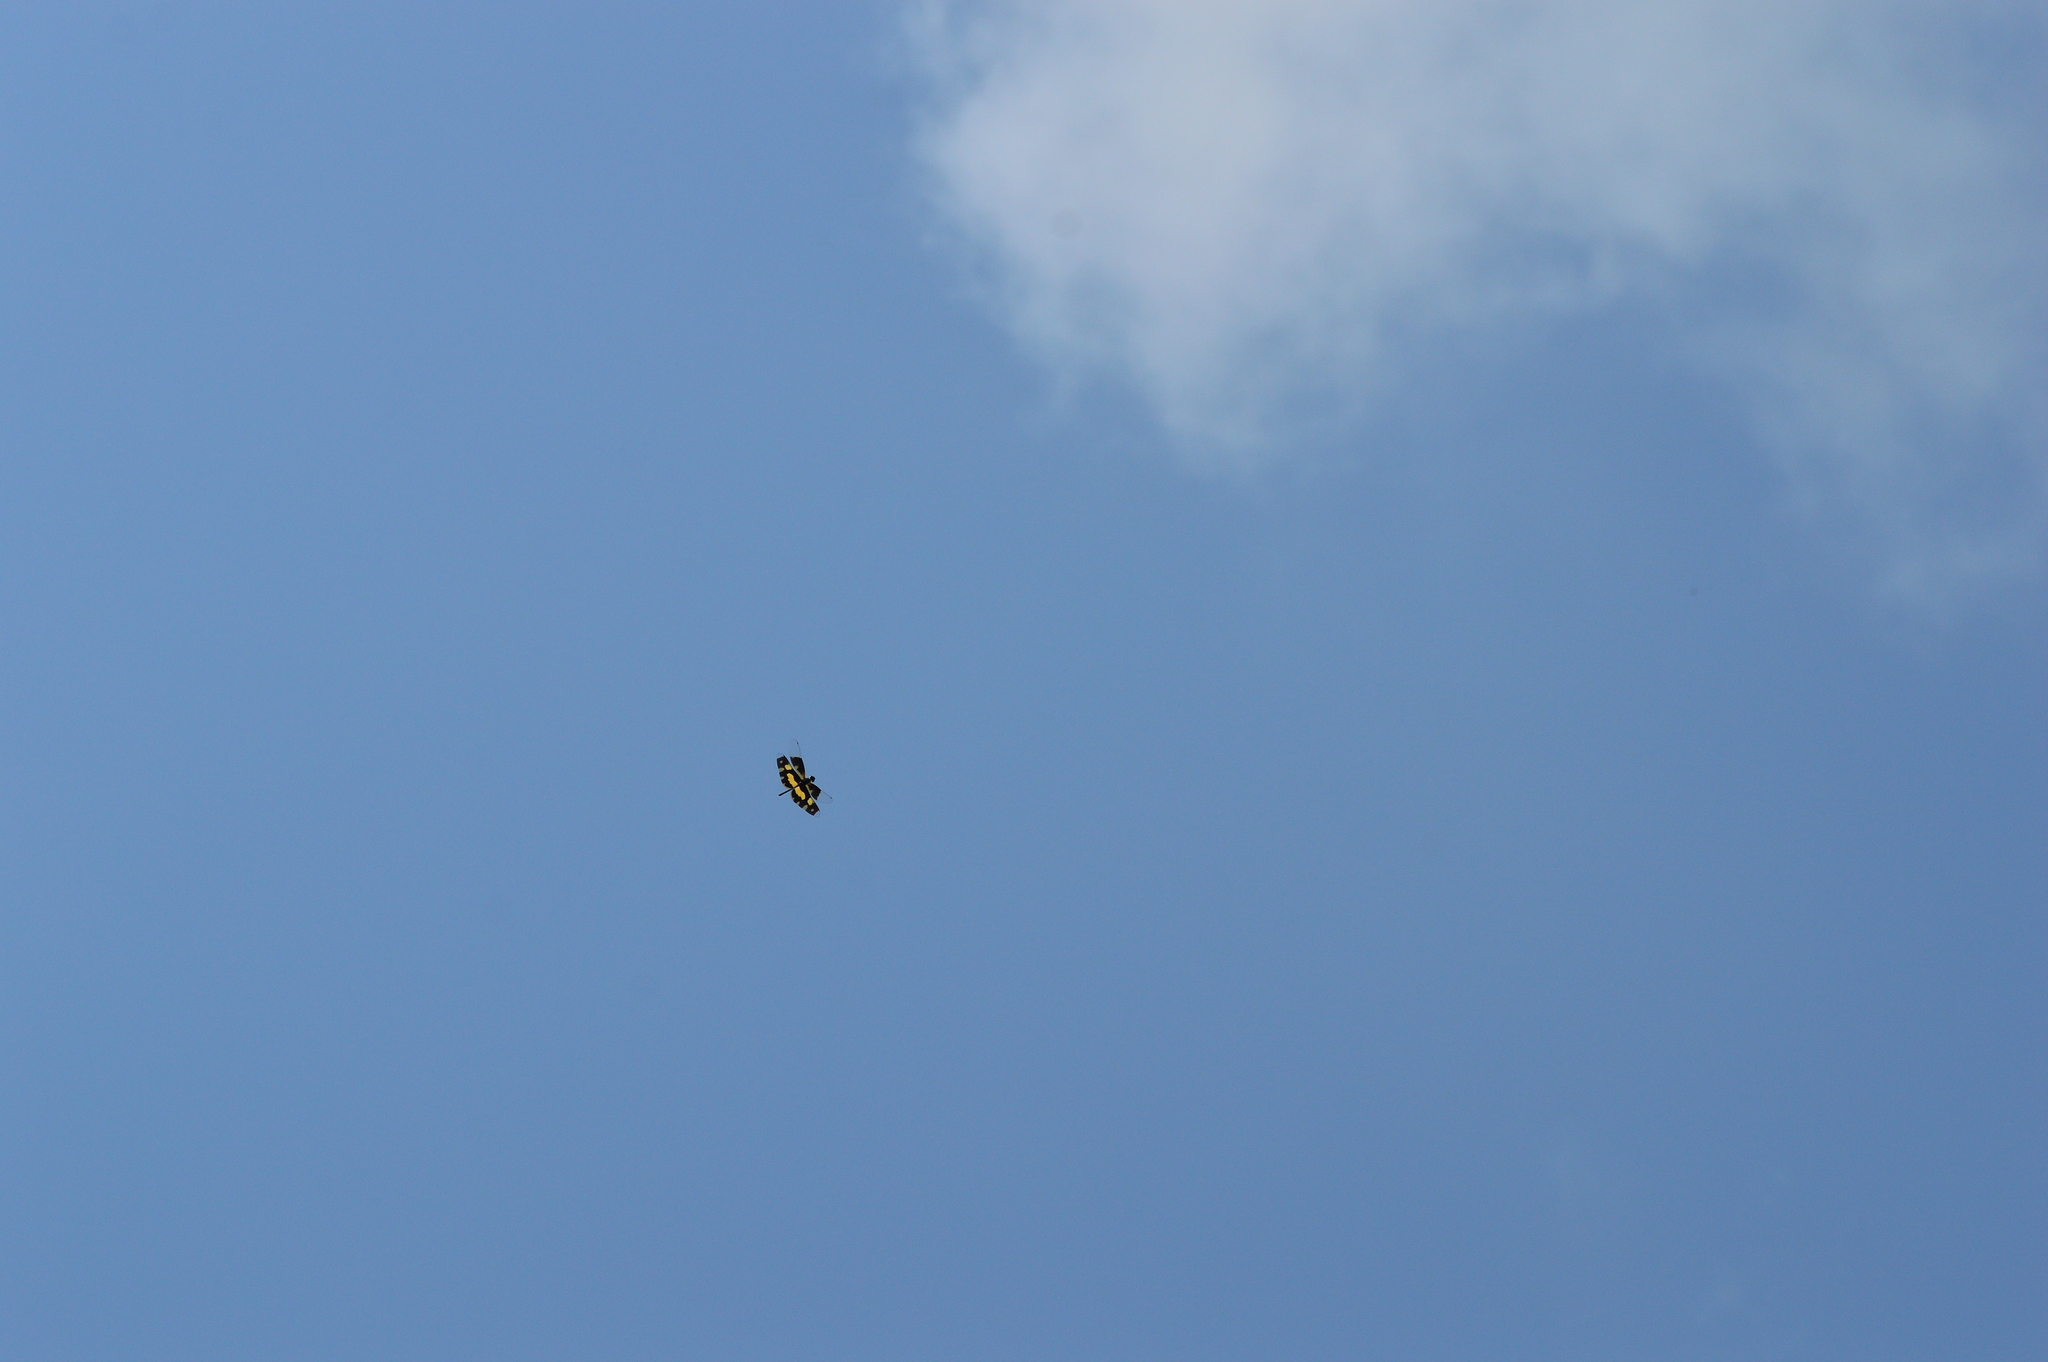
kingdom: Animalia
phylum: Arthropoda
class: Insecta
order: Odonata
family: Libellulidae
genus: Rhyothemis
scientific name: Rhyothemis variegata
